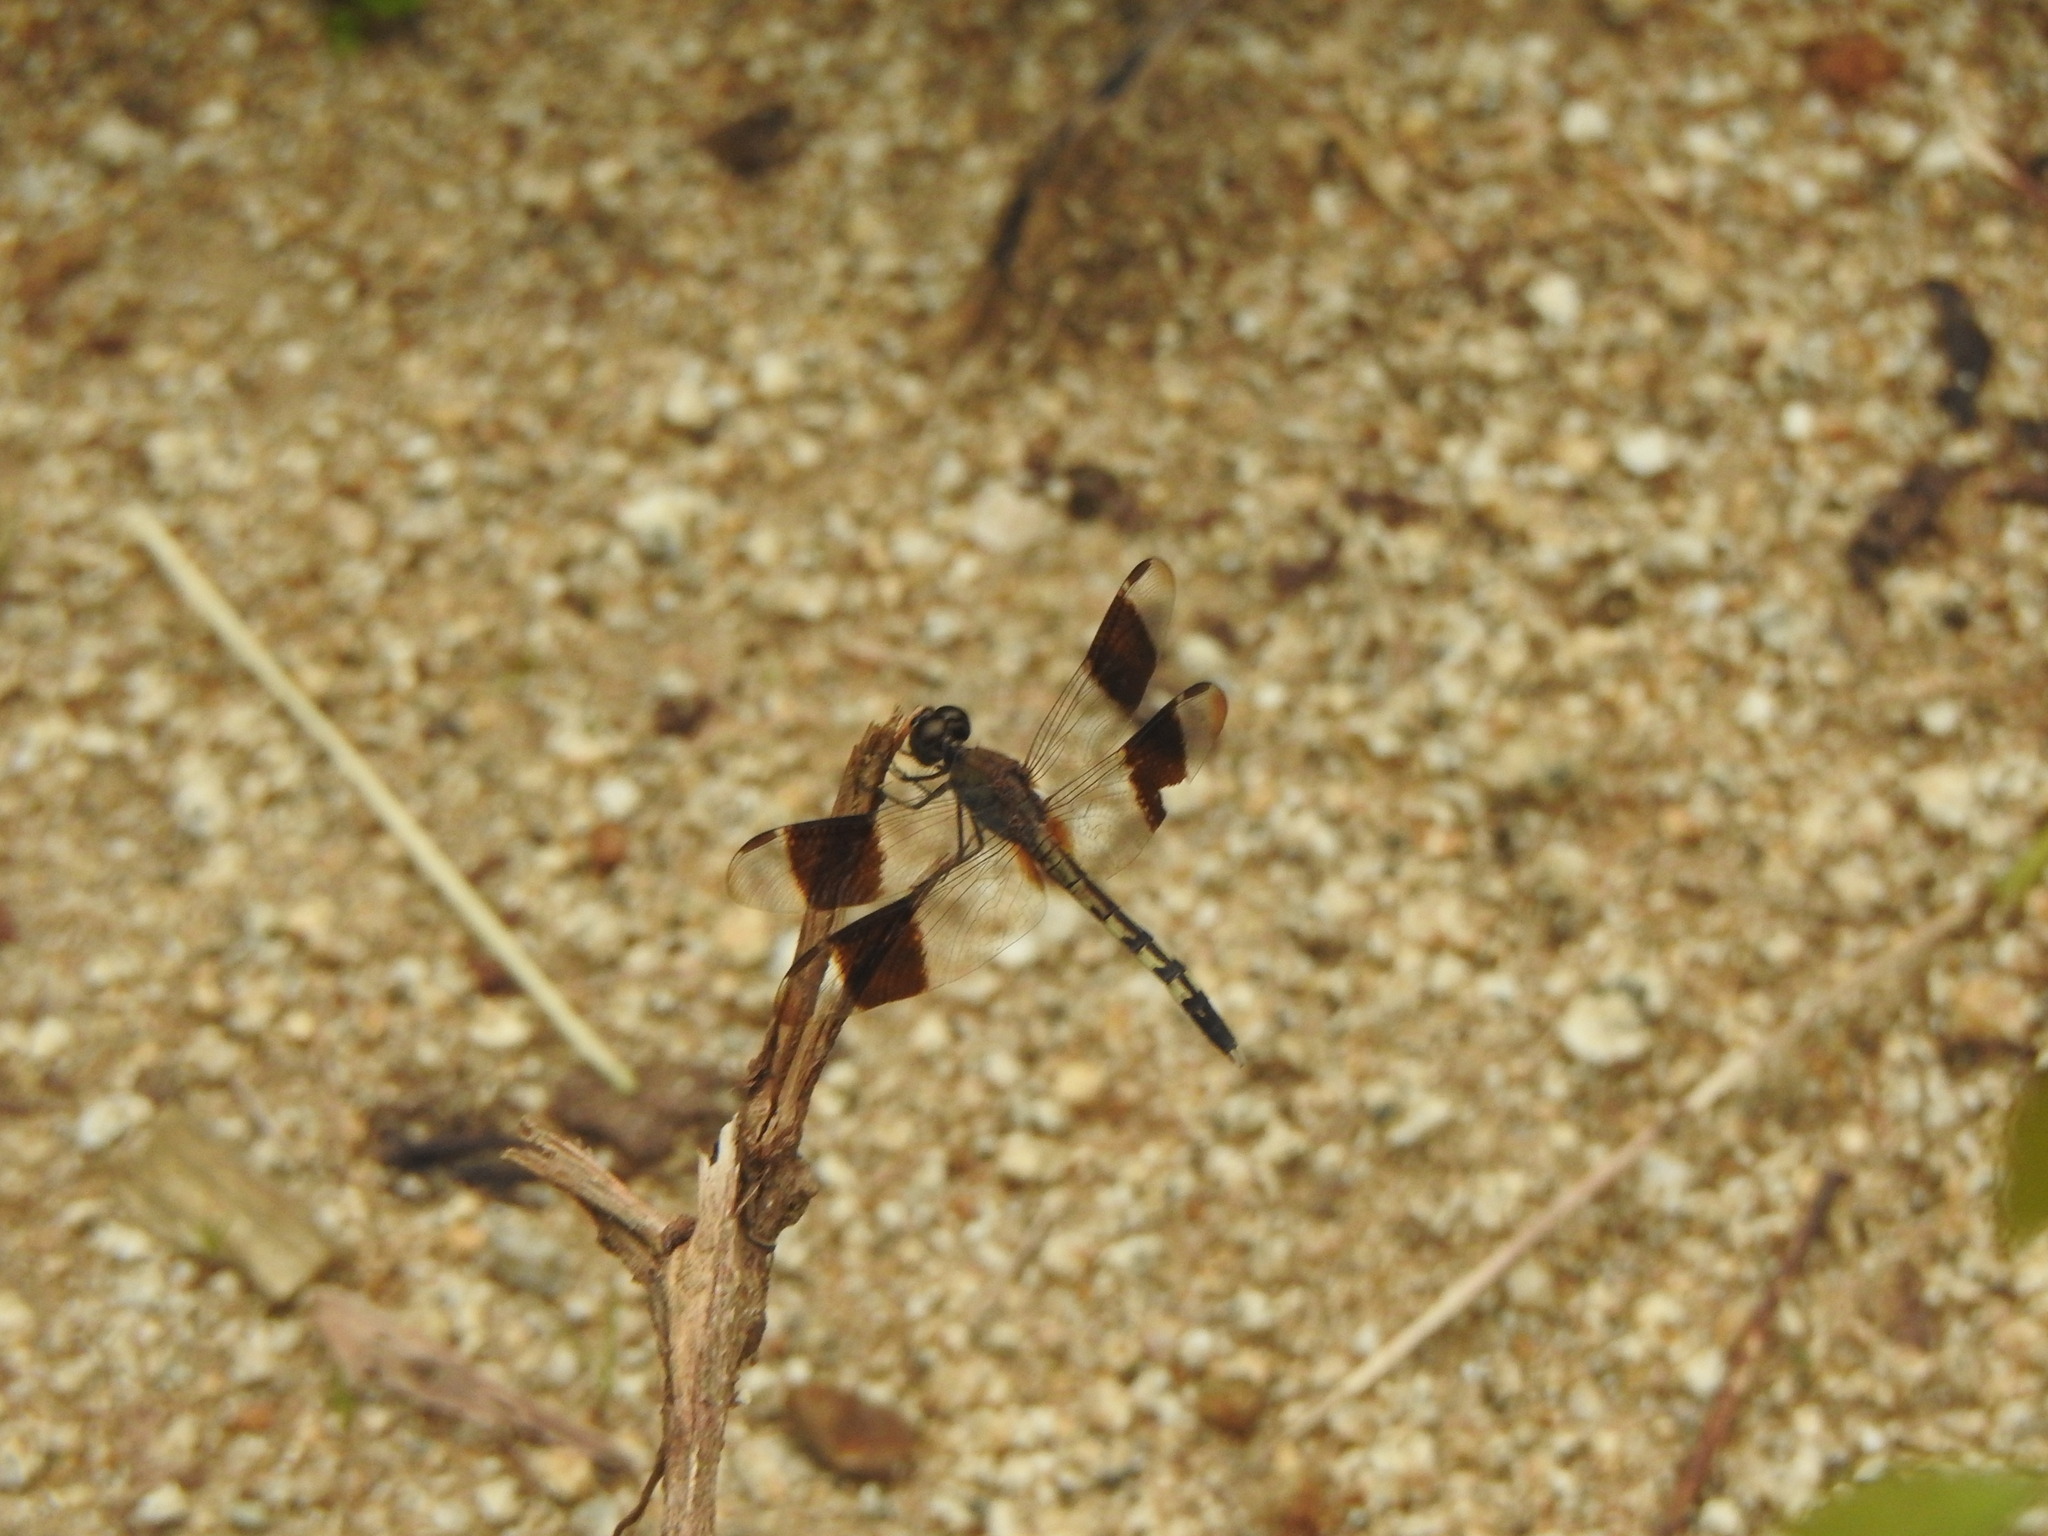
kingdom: Animalia
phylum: Arthropoda
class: Insecta
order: Odonata
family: Libellulidae
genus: Erythrodiplax
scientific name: Erythrodiplax umbrata
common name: Band-winged dragonlet
